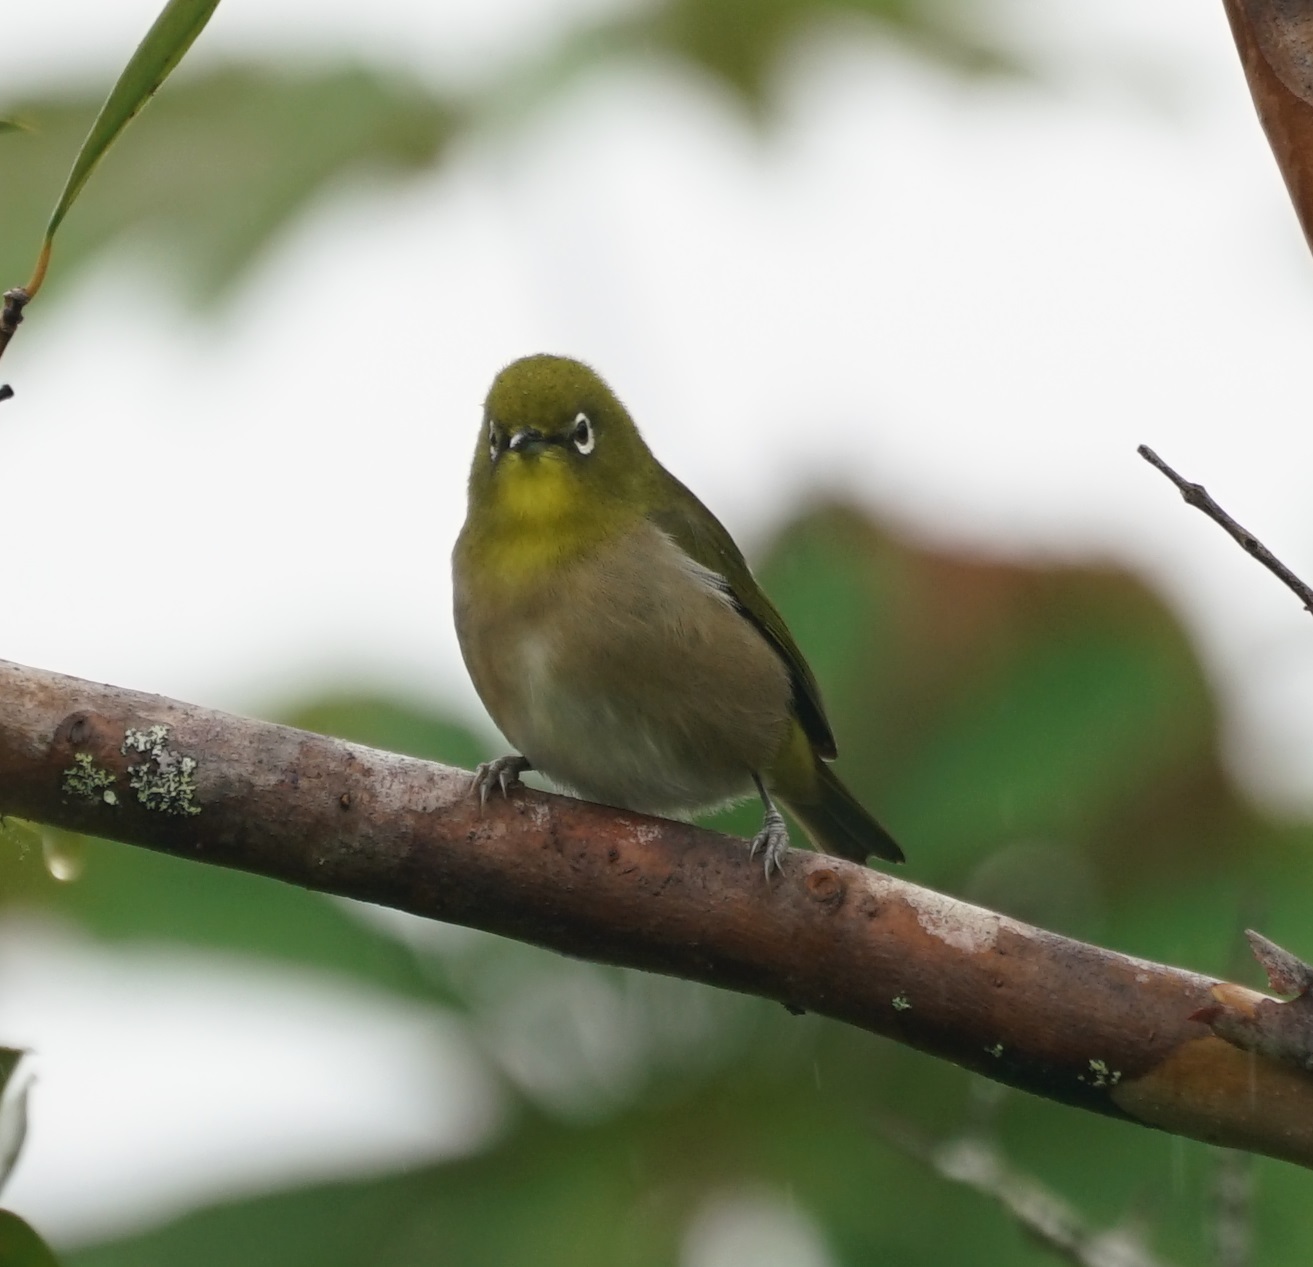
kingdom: Animalia
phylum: Chordata
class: Aves
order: Passeriformes
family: Zosteropidae
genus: Zosterops
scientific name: Zosterops japonicus
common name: Japanese white-eye
